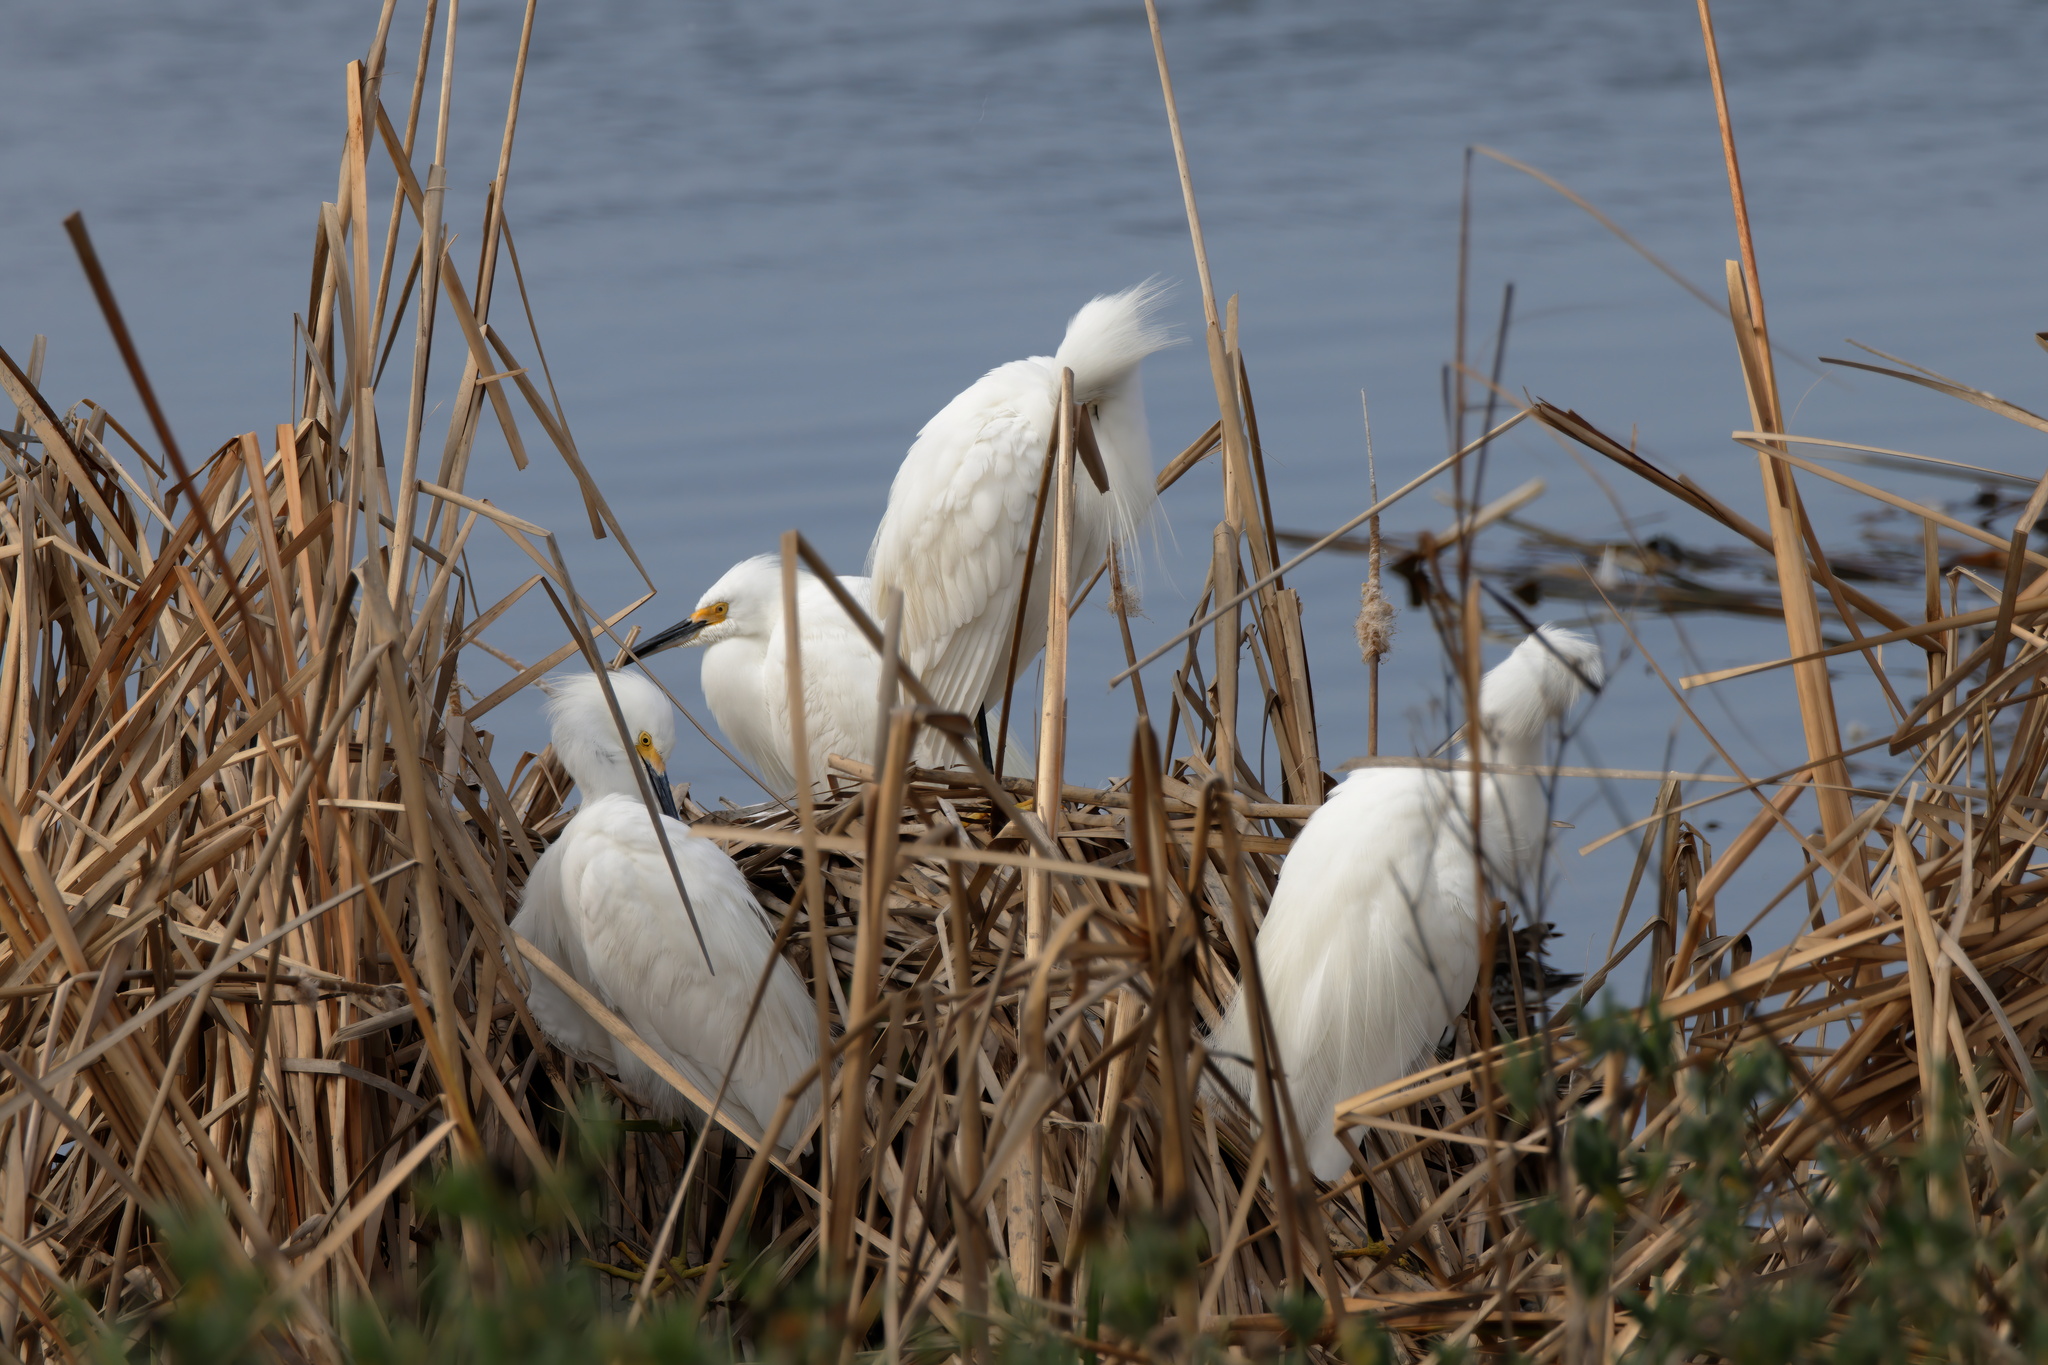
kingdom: Animalia
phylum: Chordata
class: Aves
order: Pelecaniformes
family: Ardeidae
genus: Egretta
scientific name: Egretta thula
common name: Snowy egret
